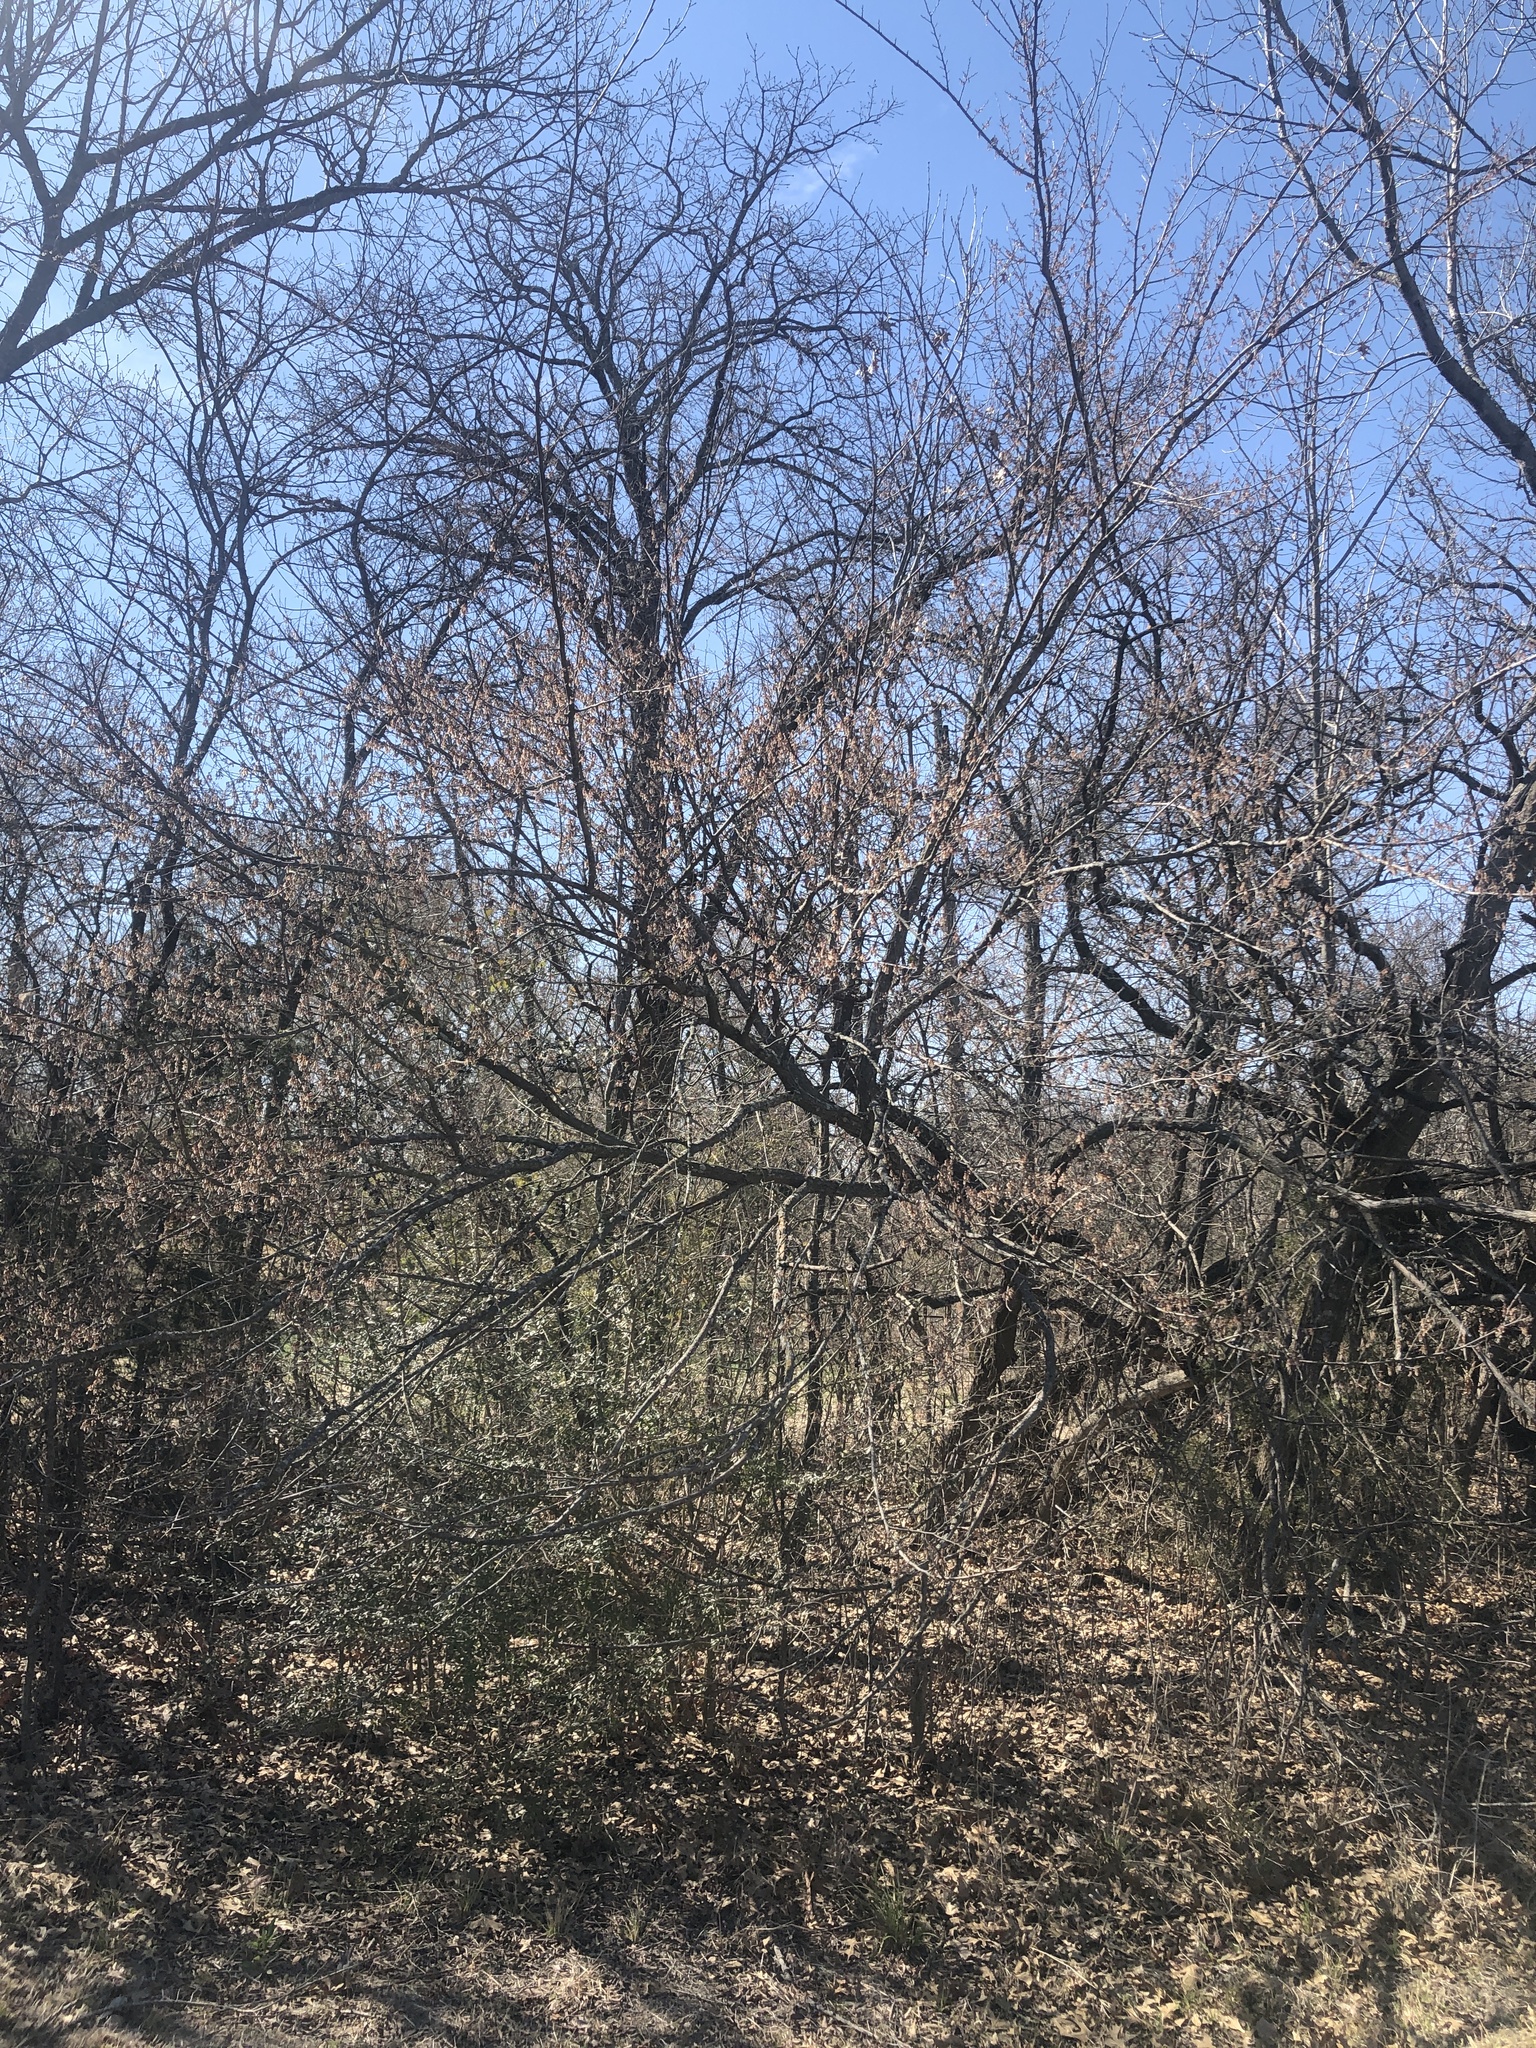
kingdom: Plantae
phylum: Tracheophyta
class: Magnoliopsida
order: Rosales
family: Ulmaceae
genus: Ulmus
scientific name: Ulmus americana
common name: American elm
